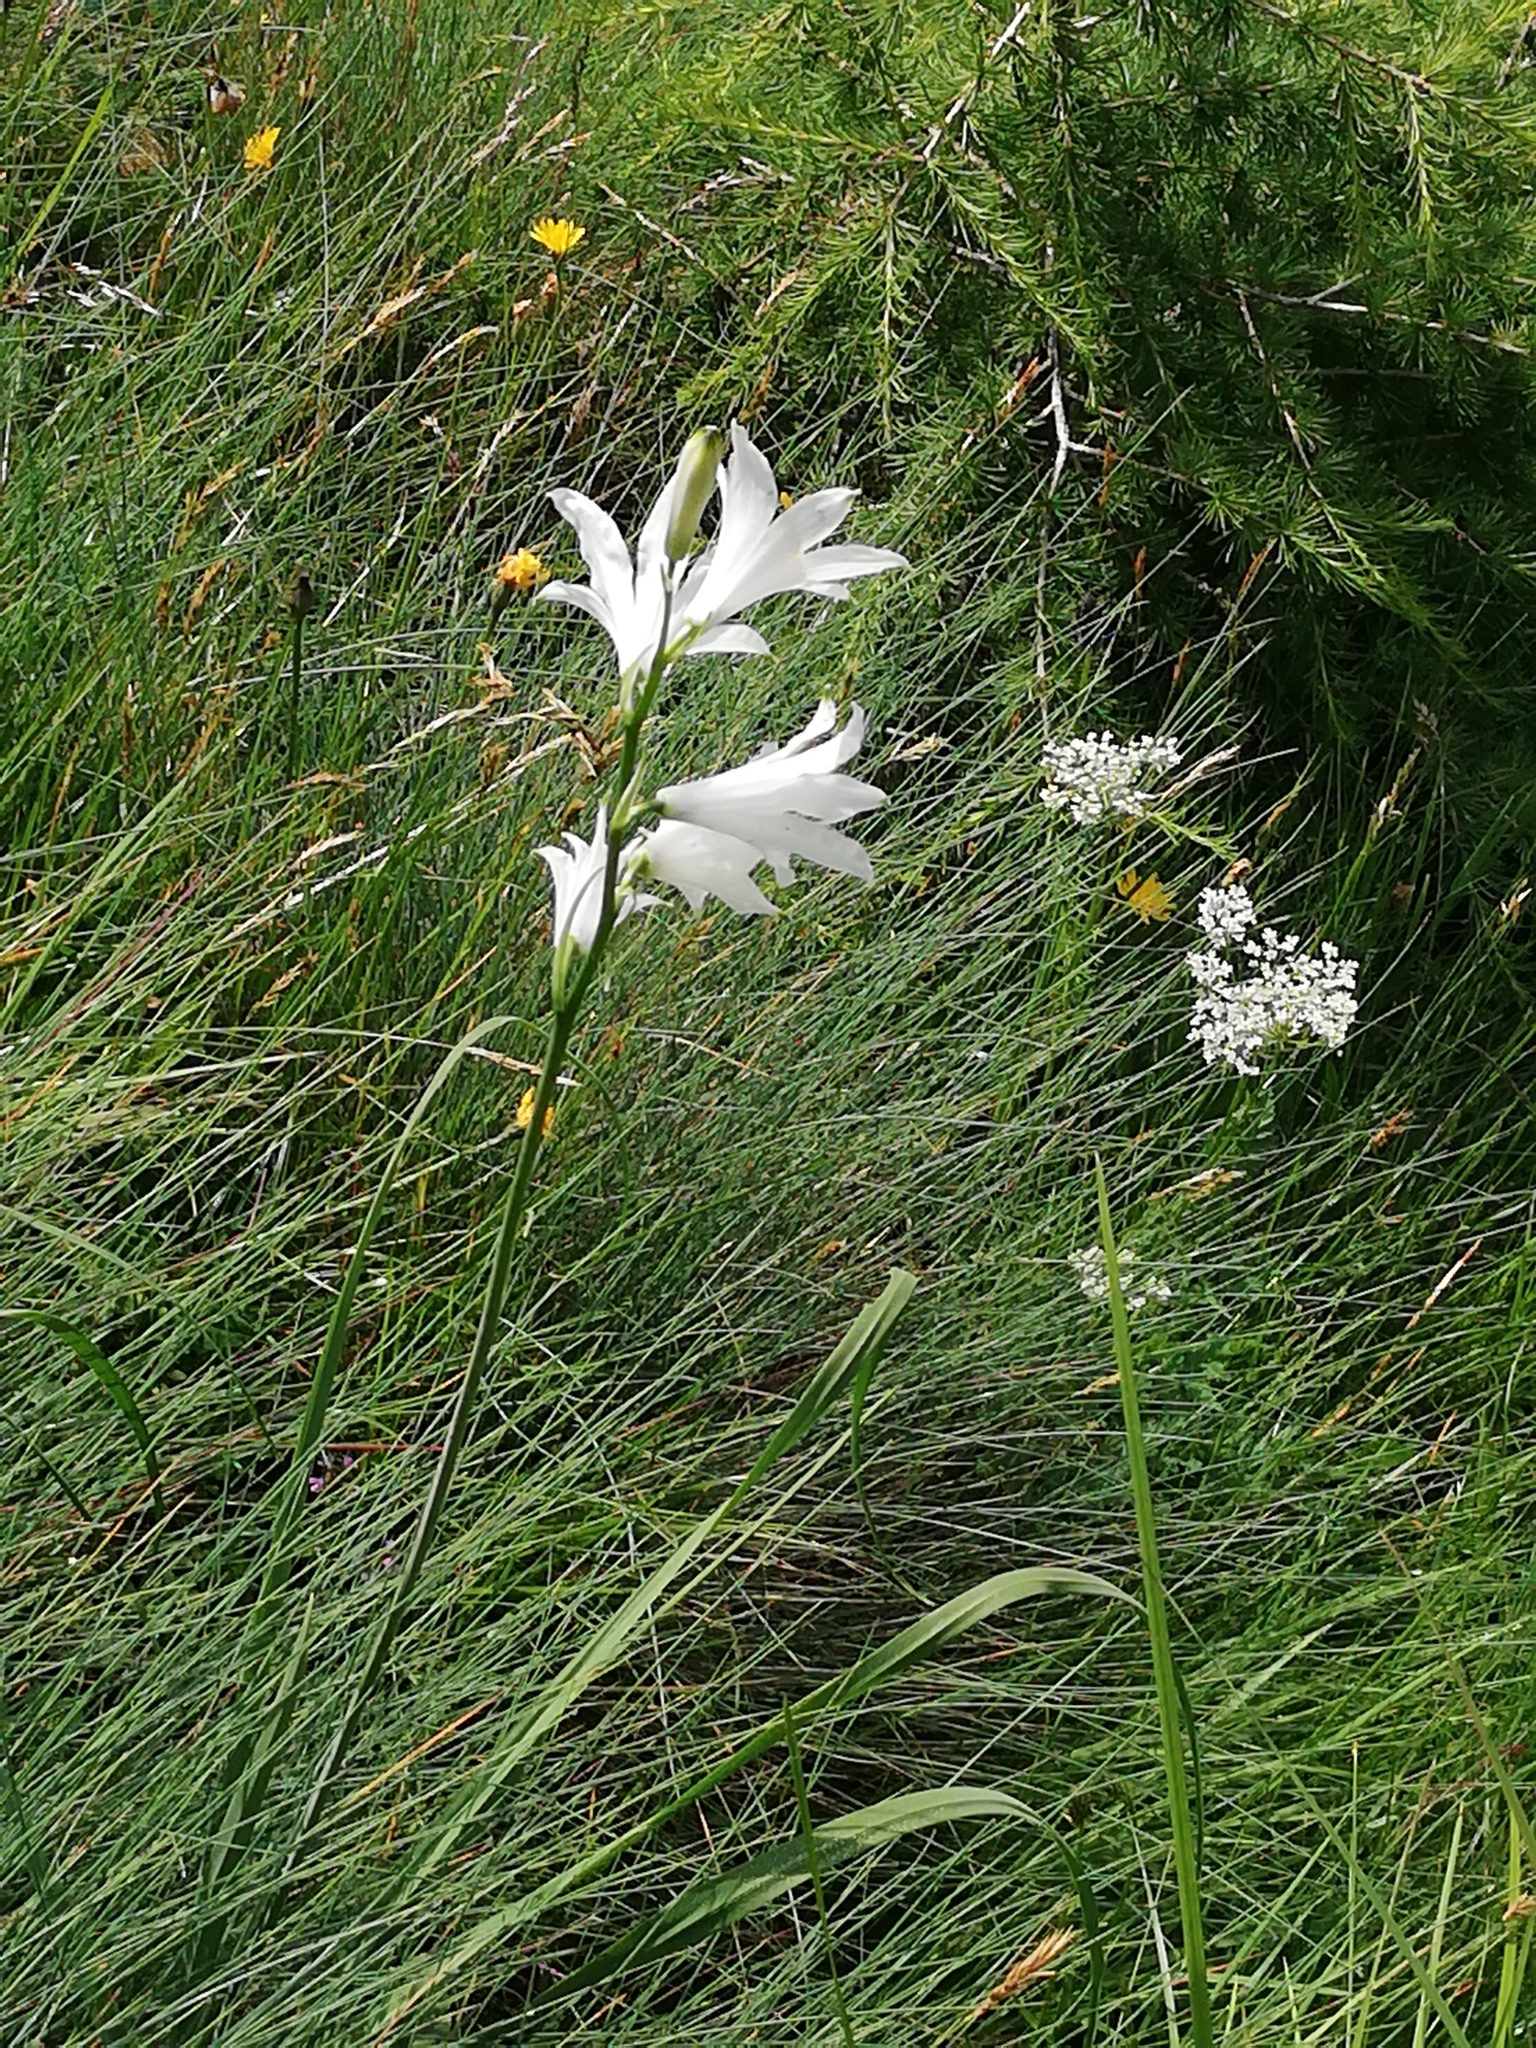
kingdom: Plantae
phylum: Tracheophyta
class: Liliopsida
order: Asparagales
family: Asparagaceae
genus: Paradisea
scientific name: Paradisea liliastrum
